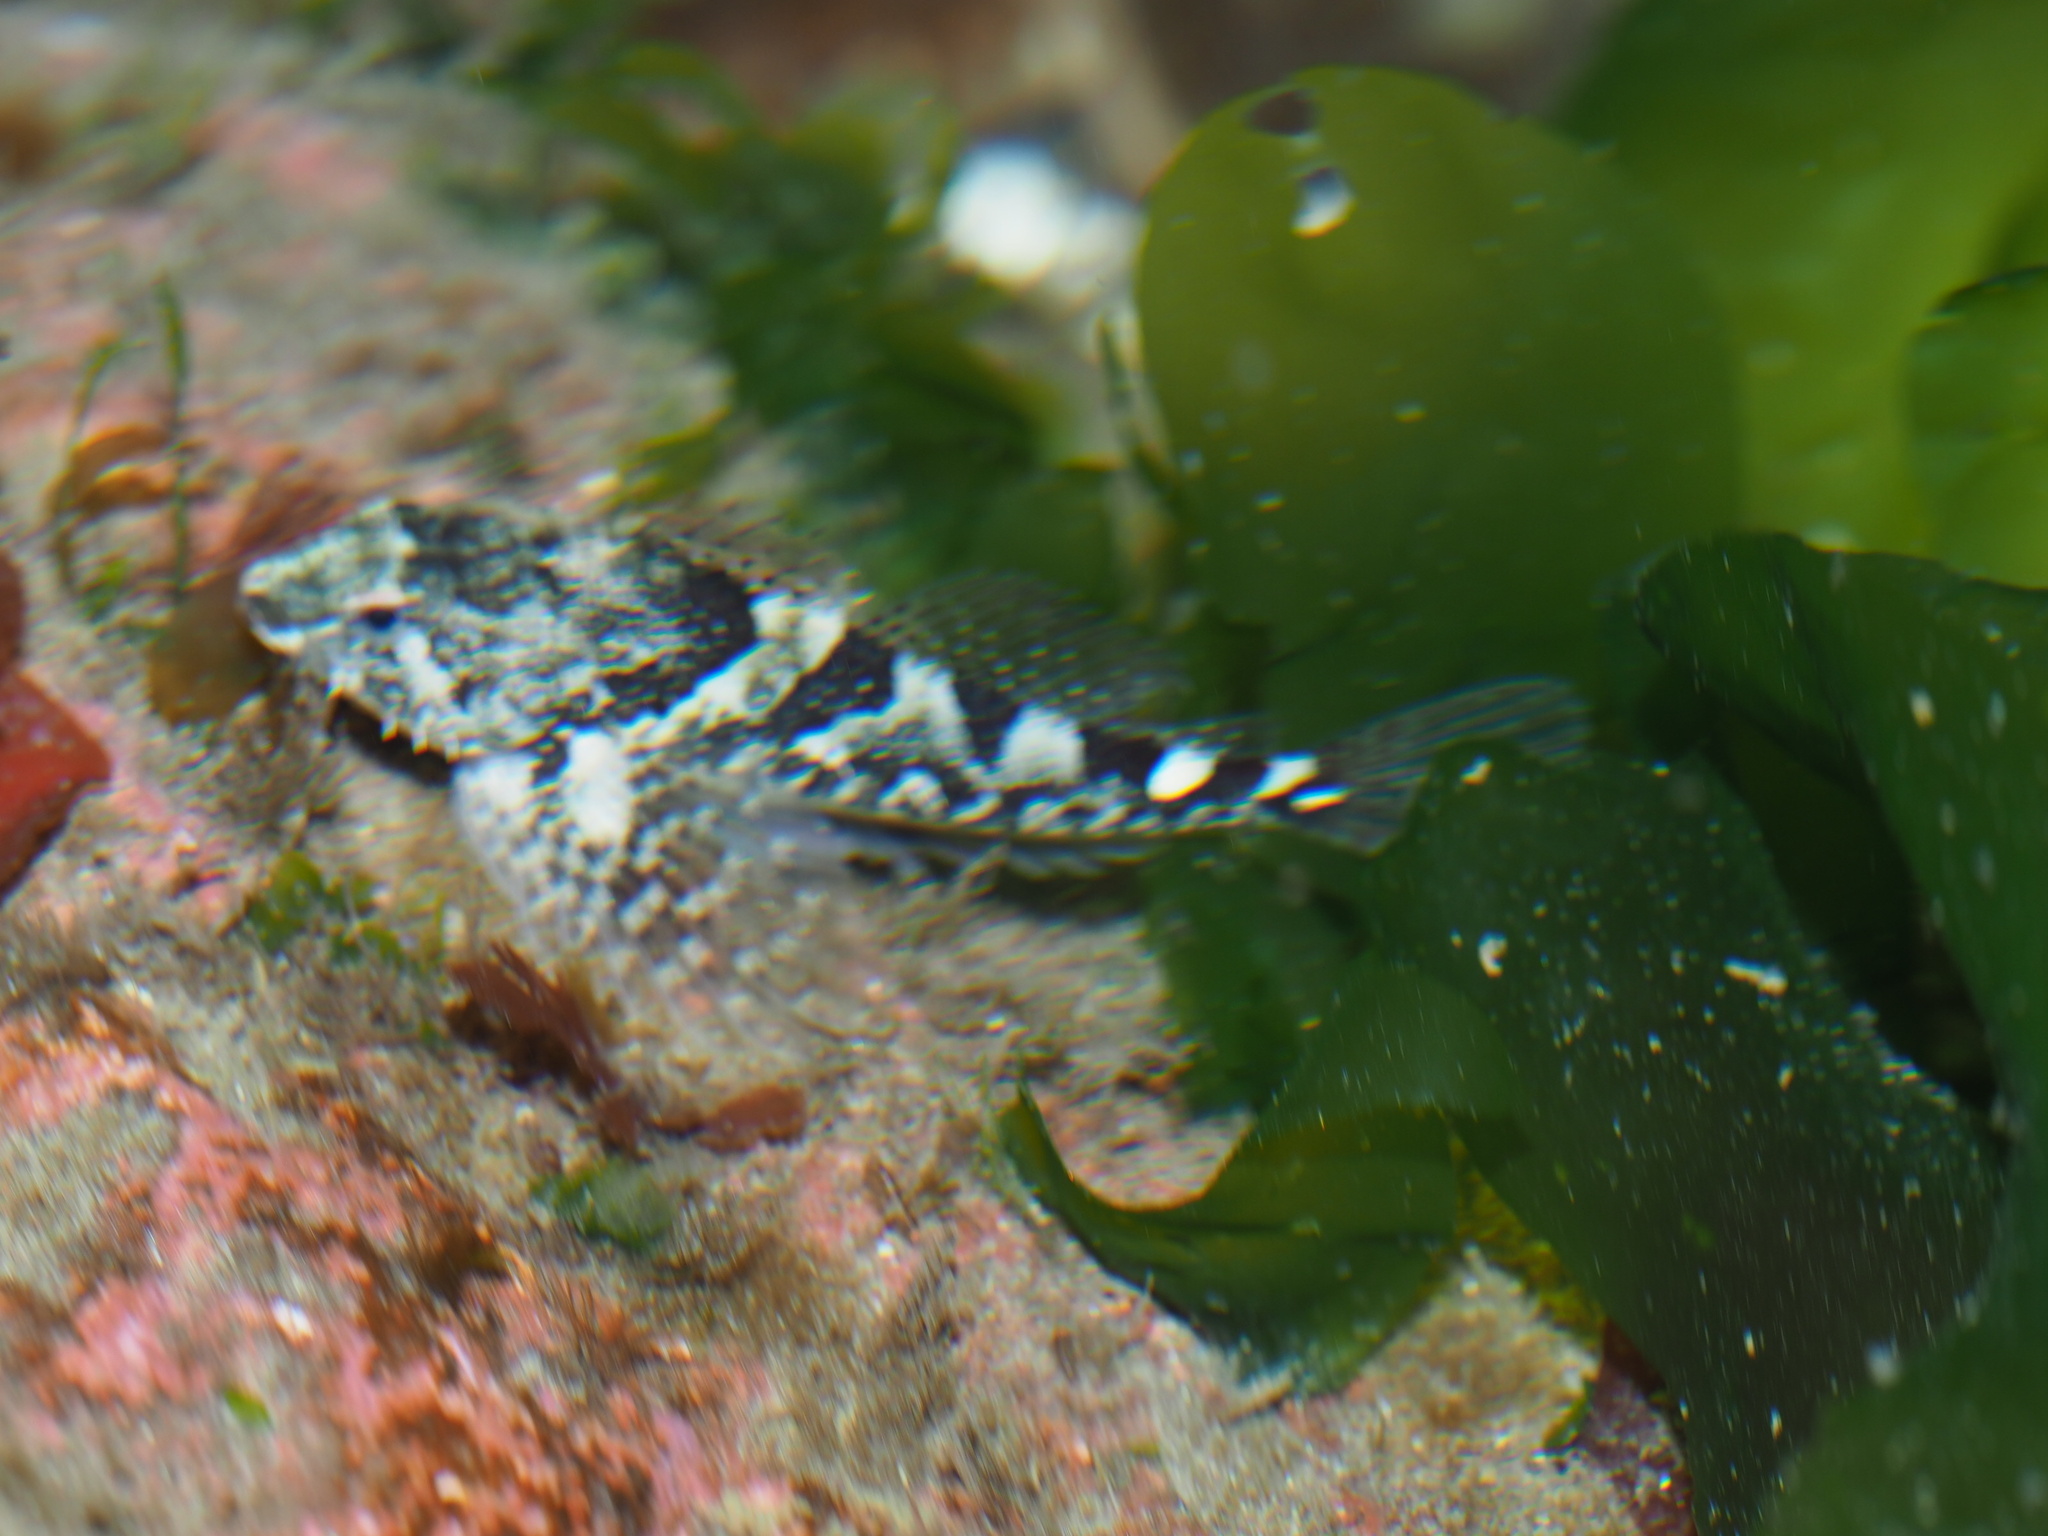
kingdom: Animalia
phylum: Chordata
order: Scorpaeniformes
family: Cottidae
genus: Oligocottus
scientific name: Oligocottus maculosus
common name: Tidepool sculpin
